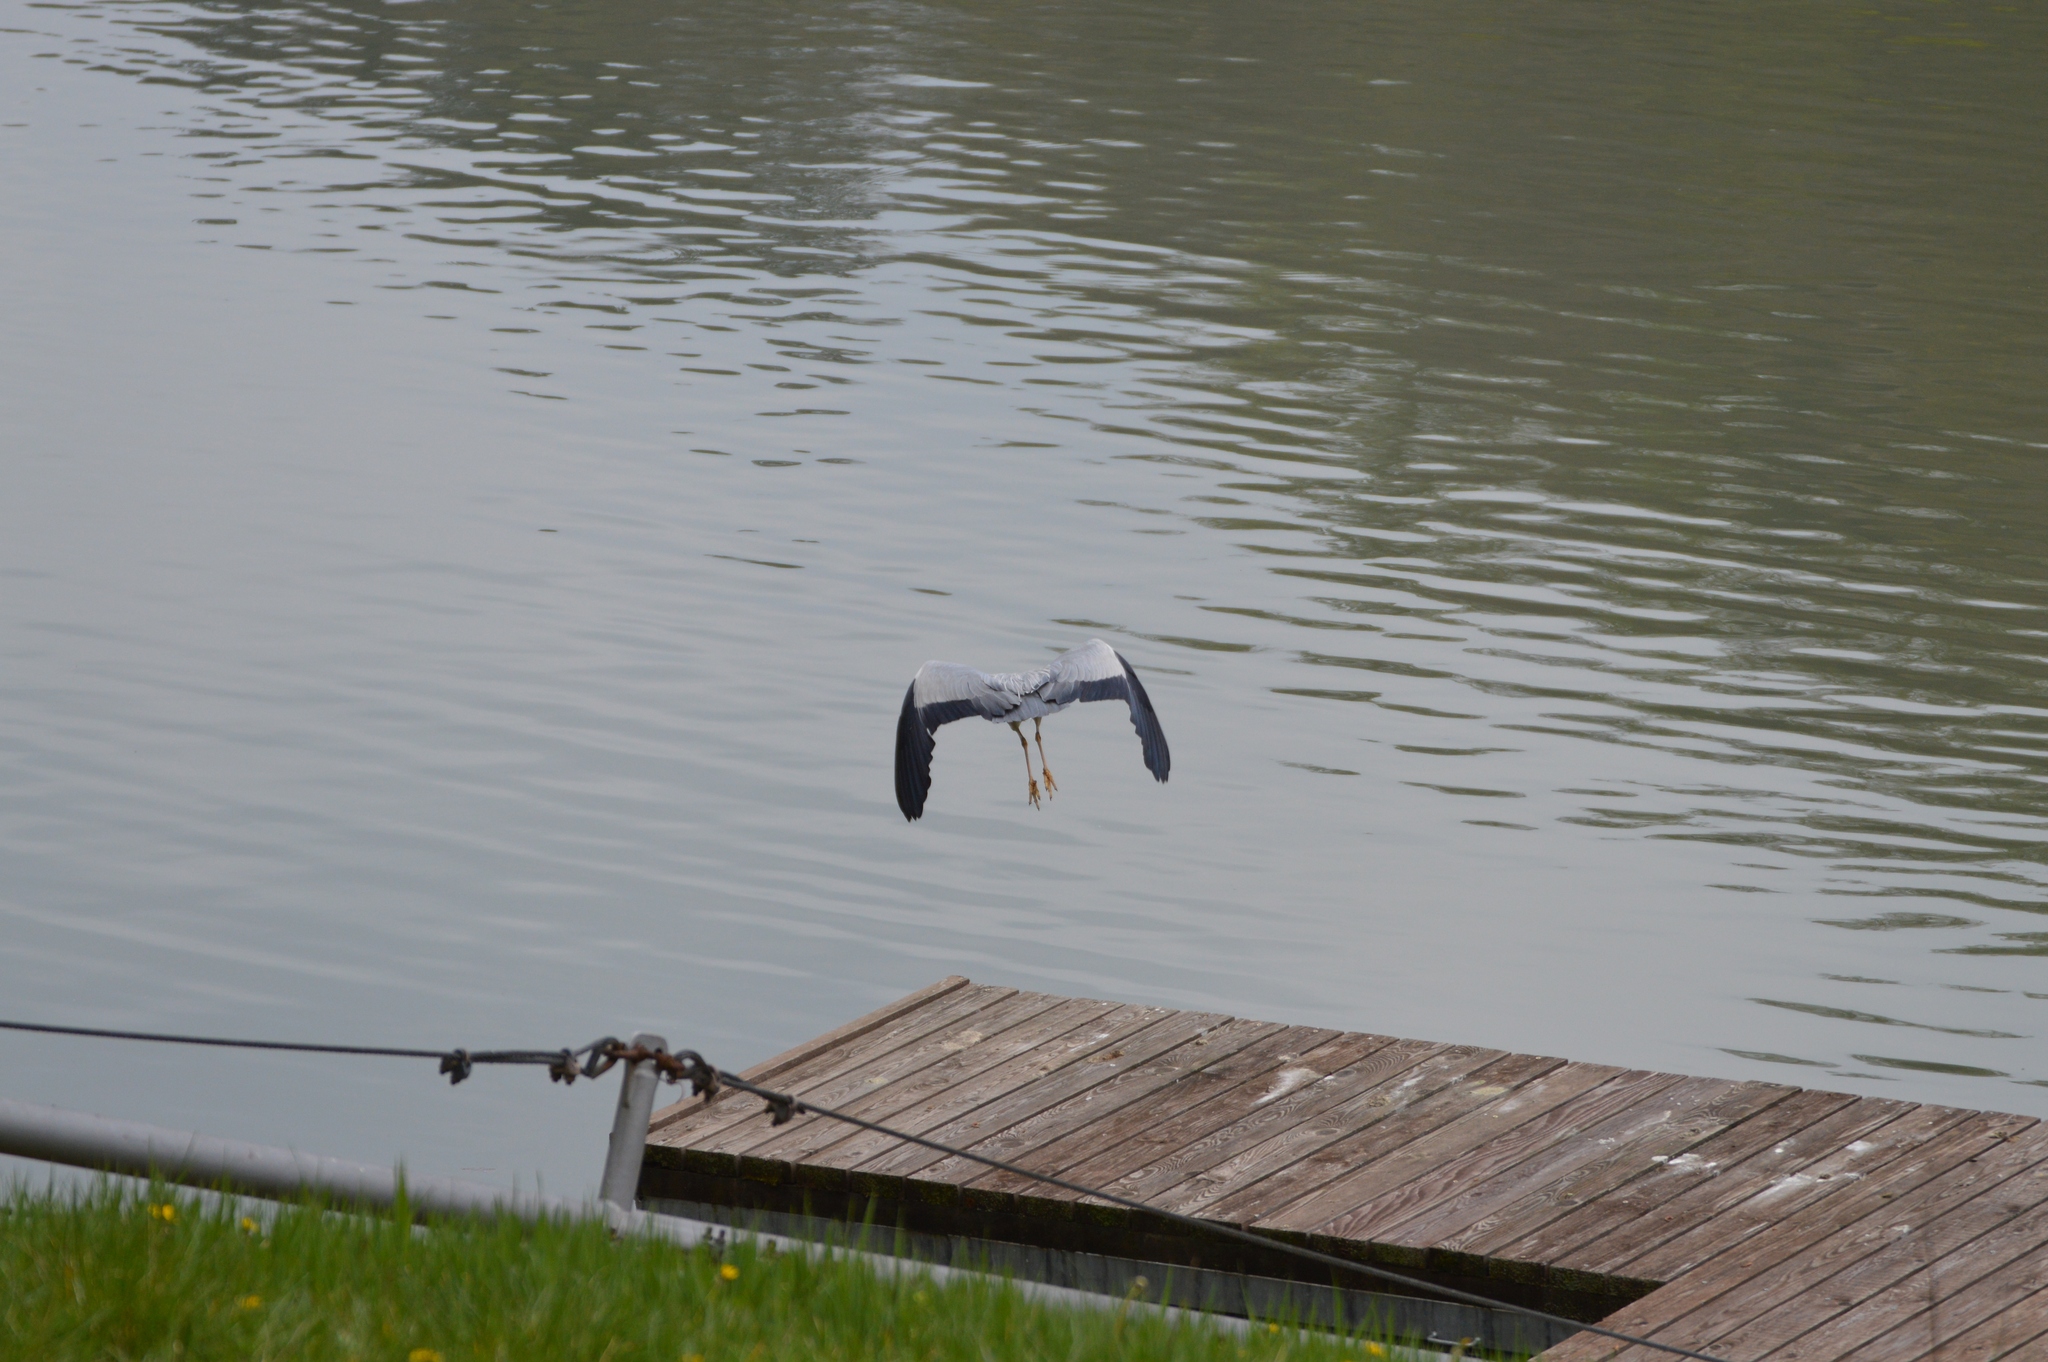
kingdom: Animalia
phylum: Chordata
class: Aves
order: Pelecaniformes
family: Ardeidae
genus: Ardea
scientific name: Ardea cinerea
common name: Grey heron
